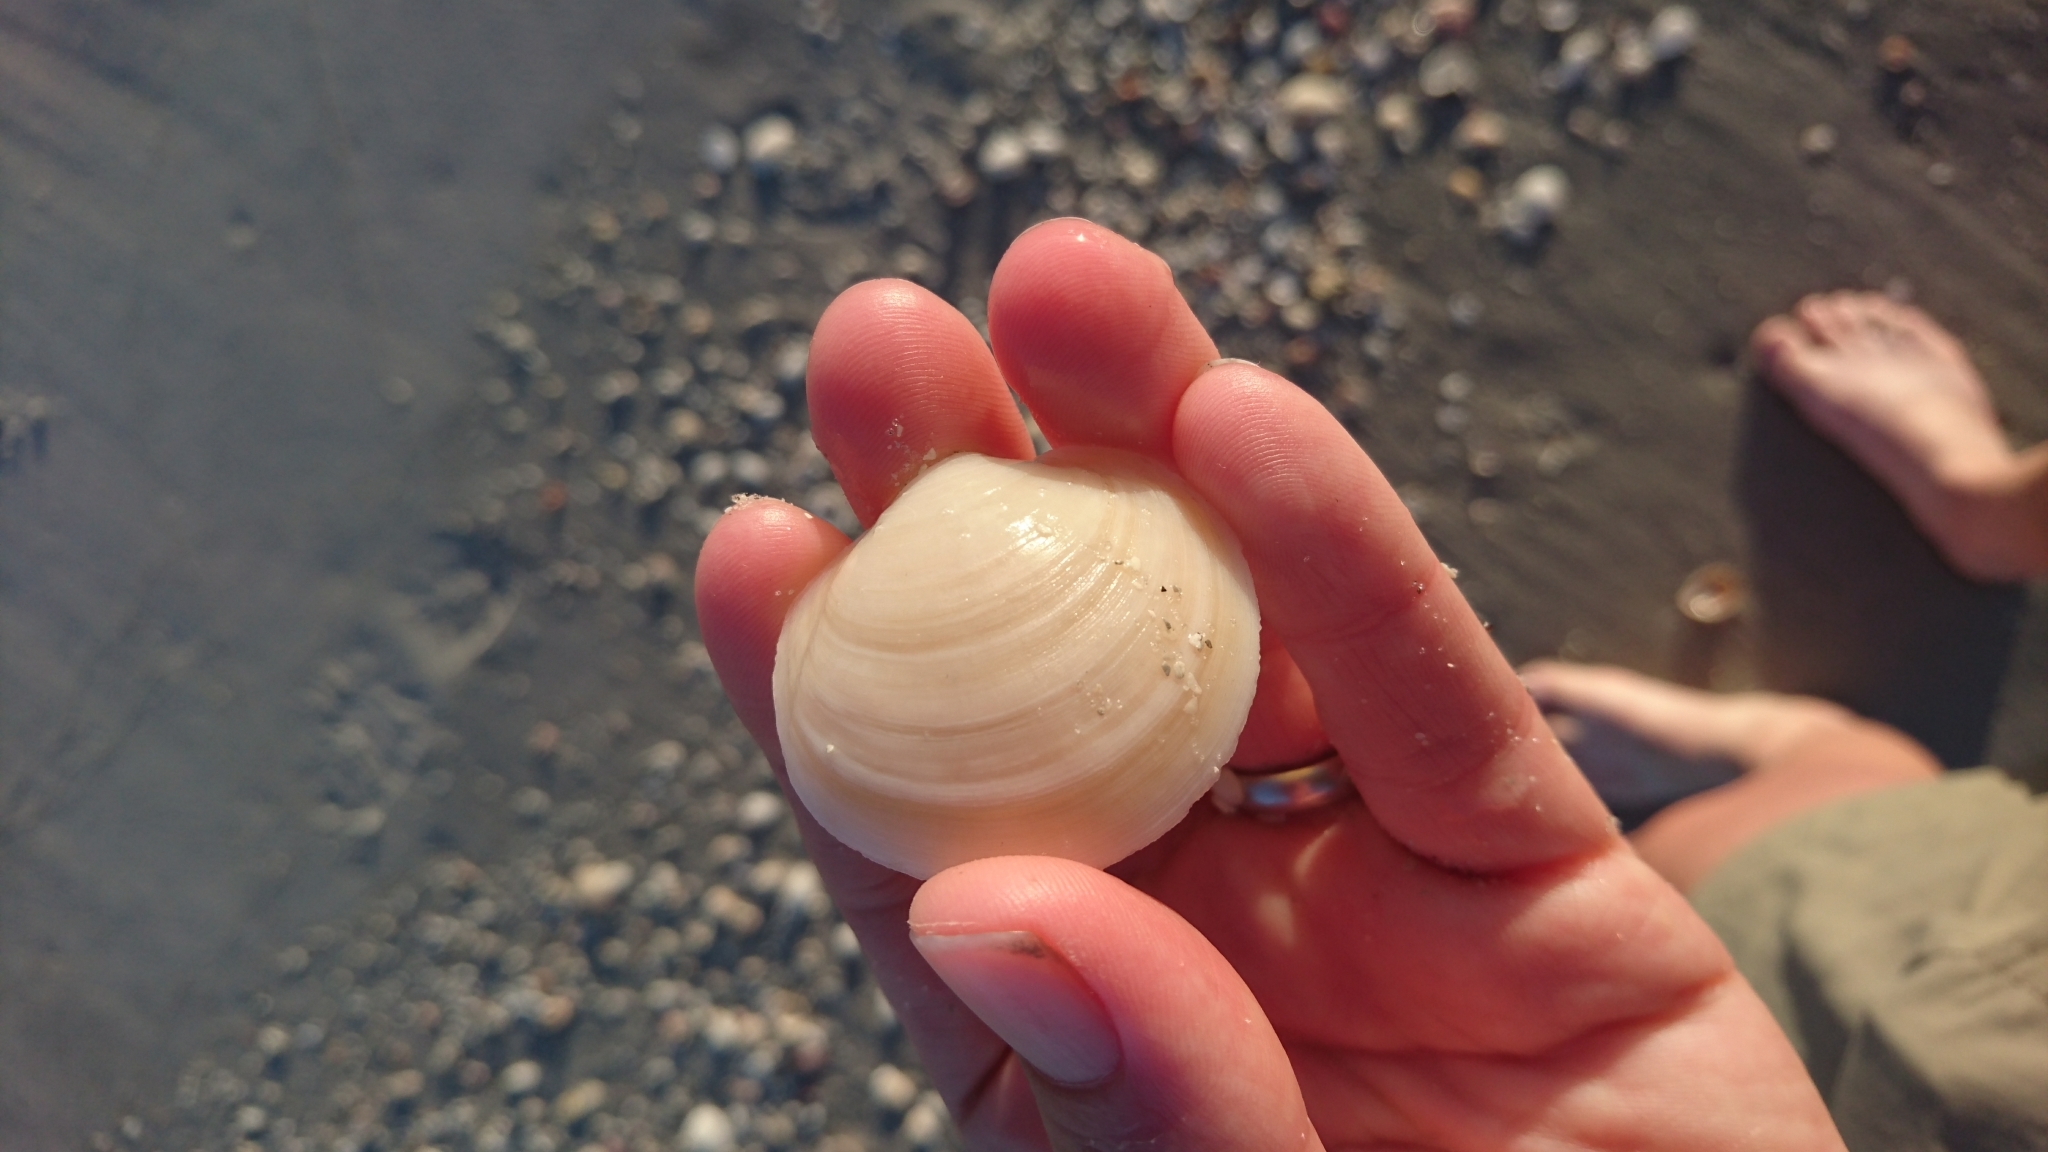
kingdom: Animalia
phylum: Mollusca
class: Bivalvia
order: Lucinida
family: Lucinidae
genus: Anodontia
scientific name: Anodontia alba
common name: Buttercup lucine
